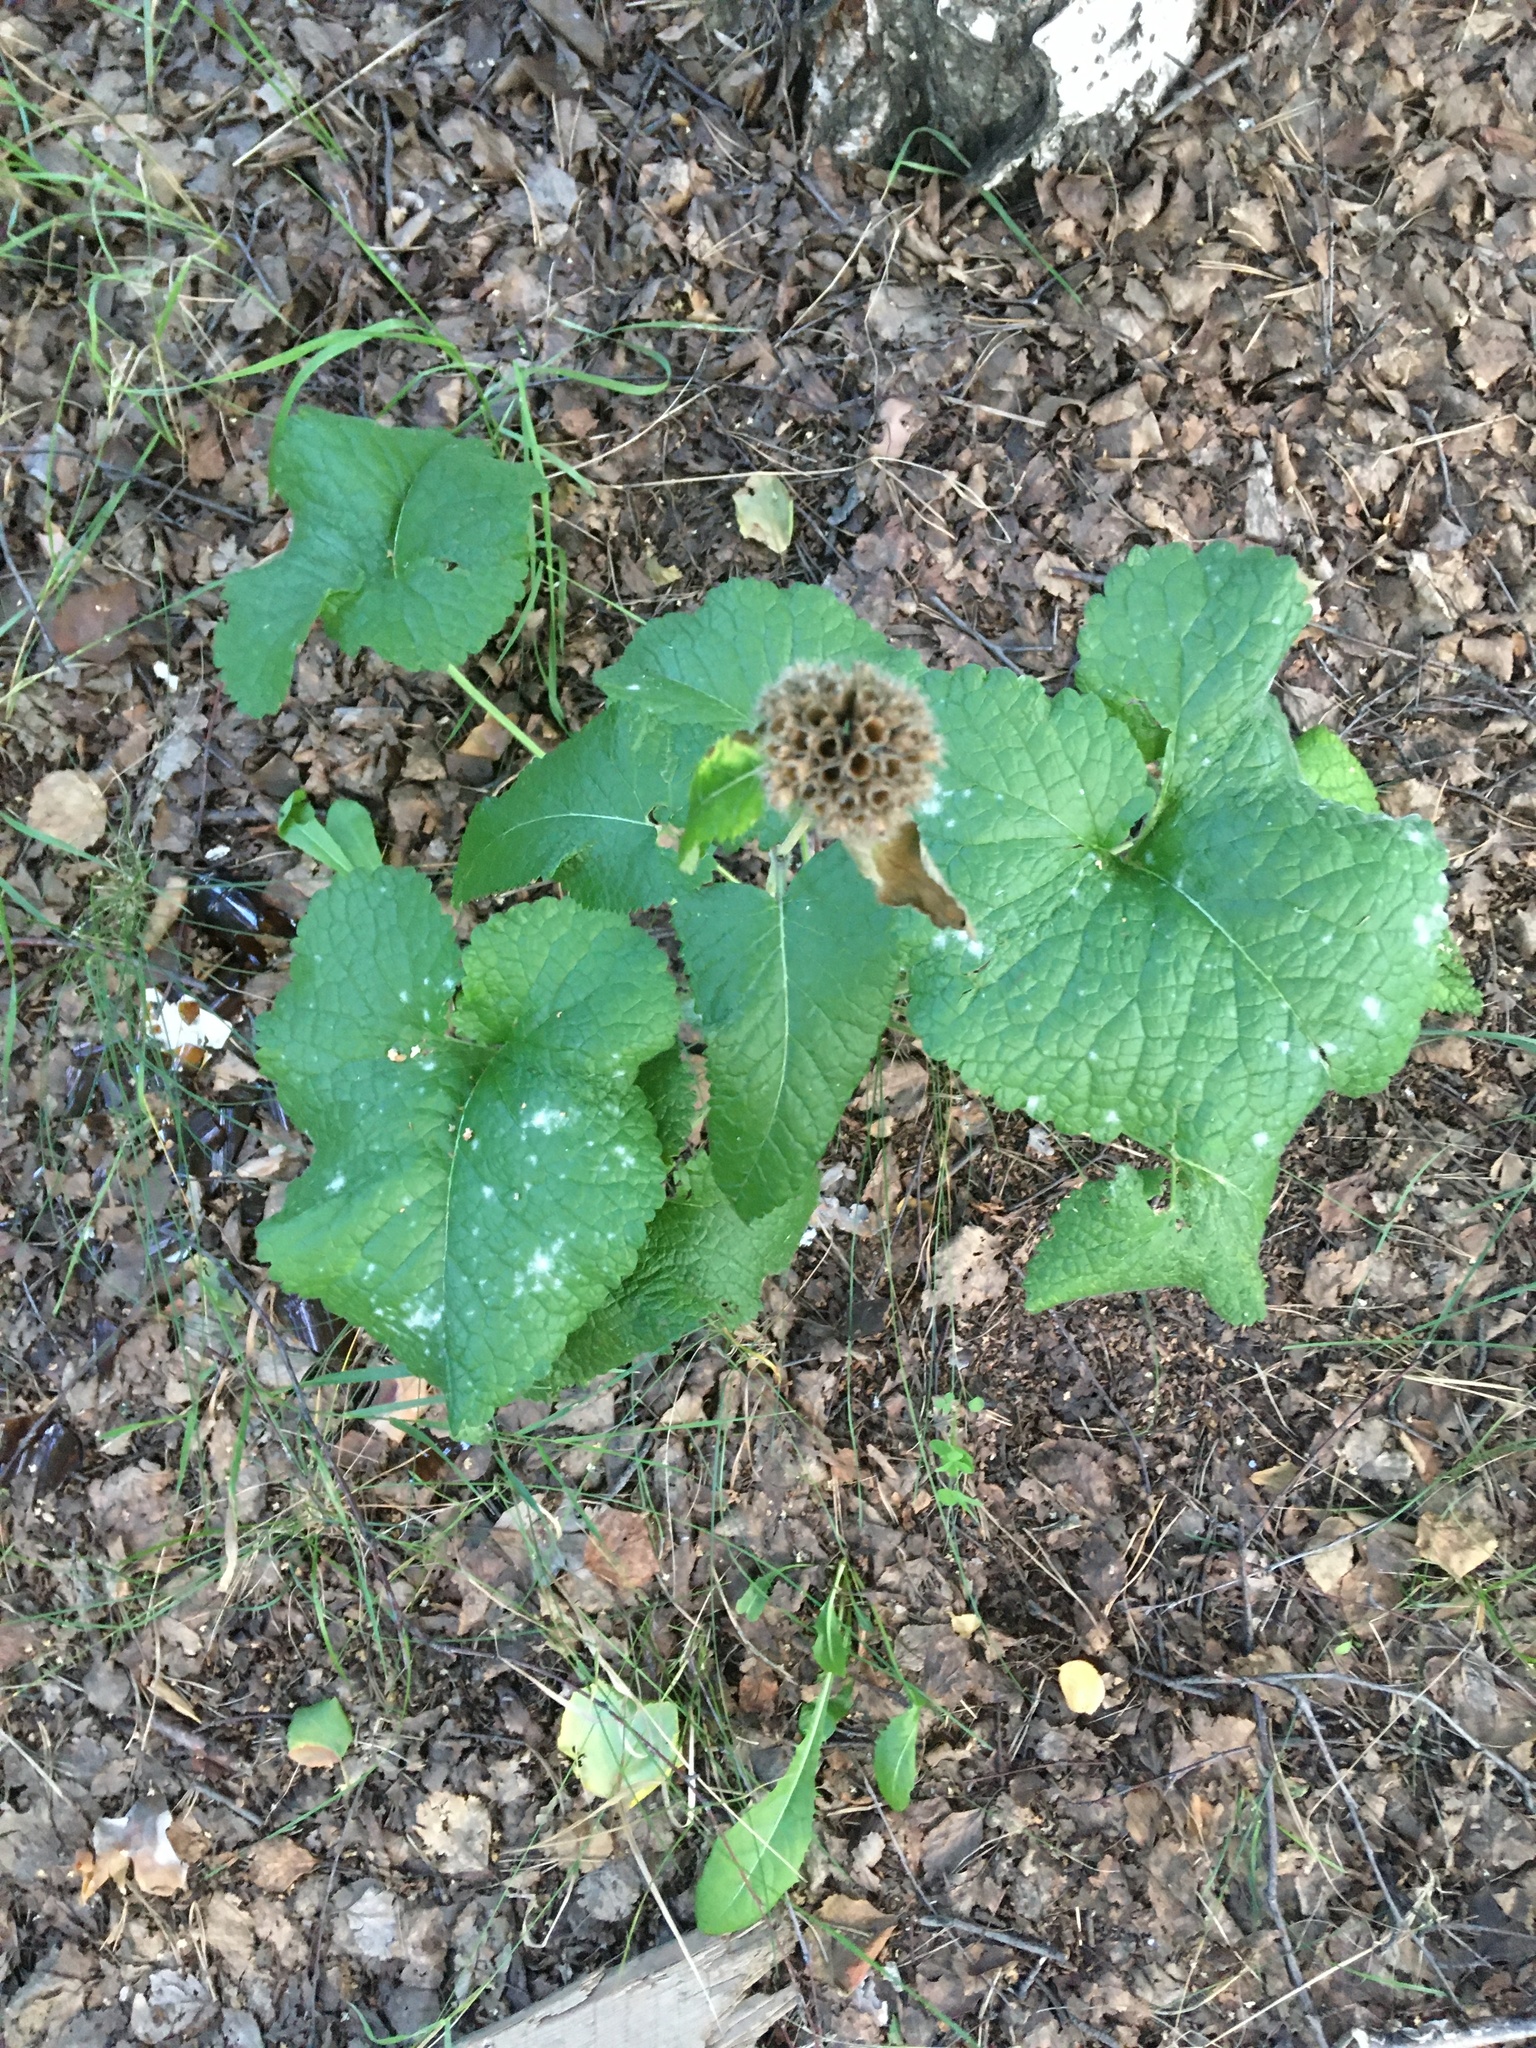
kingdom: Plantae
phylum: Tracheophyta
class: Magnoliopsida
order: Lamiales
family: Lamiaceae
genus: Phlomoides
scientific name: Phlomoides tuberosa
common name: Tuberous jerusalem sage
